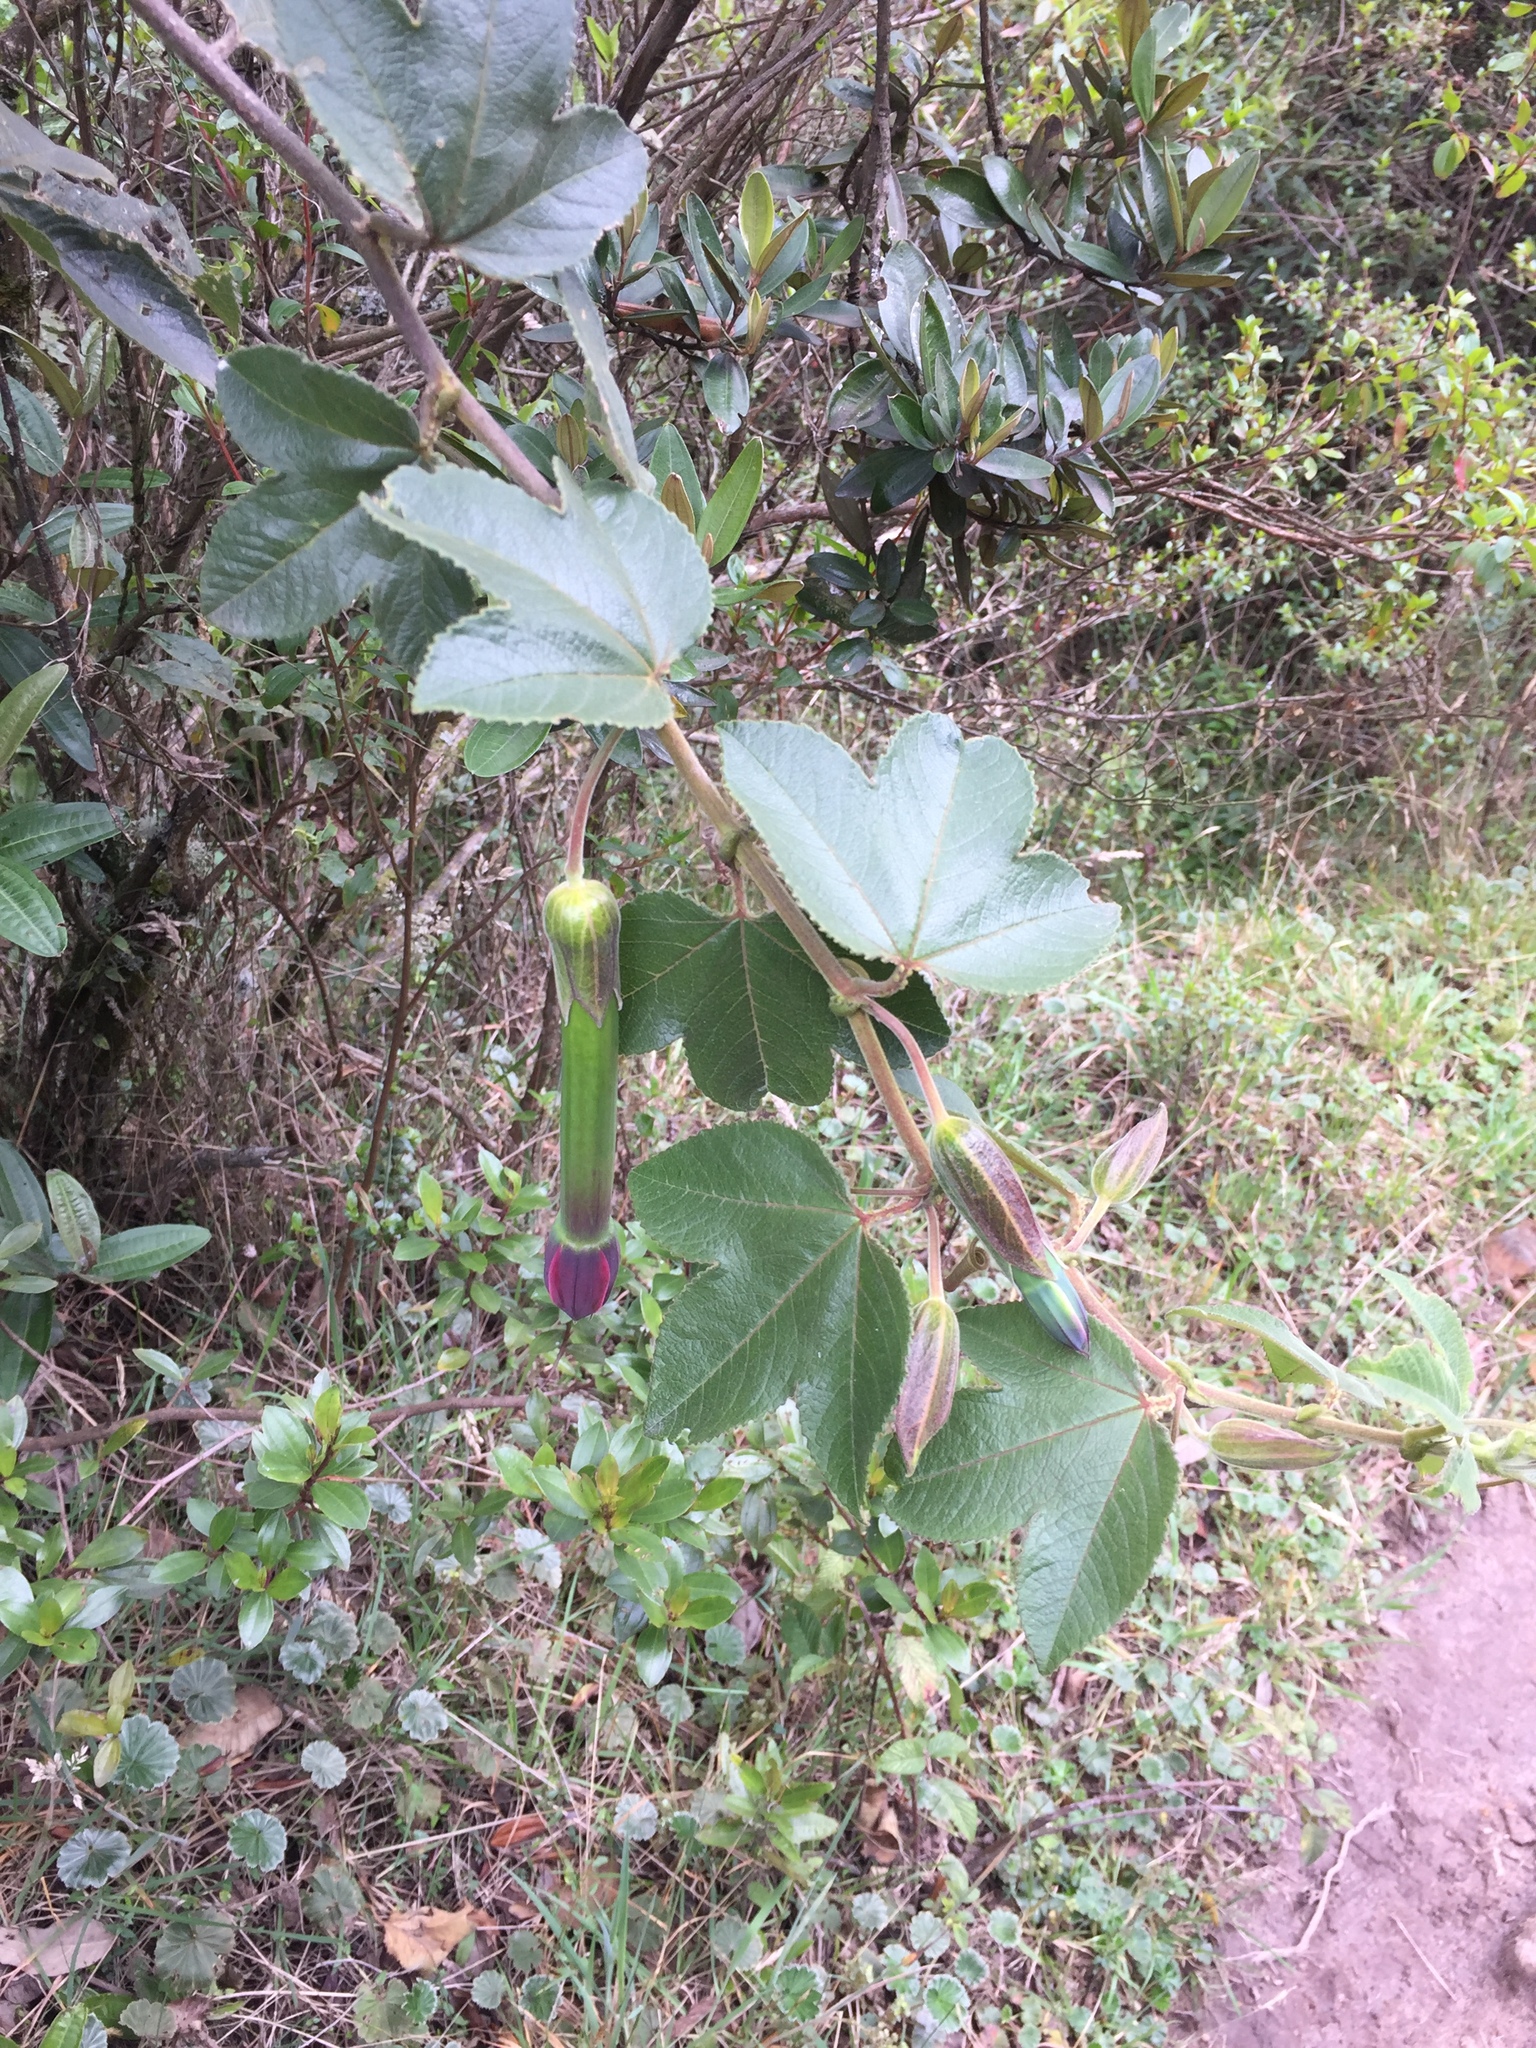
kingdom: Plantae
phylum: Tracheophyta
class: Magnoliopsida
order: Malpighiales
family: Passifloraceae
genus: Passiflora
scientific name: Passiflora tripartita
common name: Banana poka
